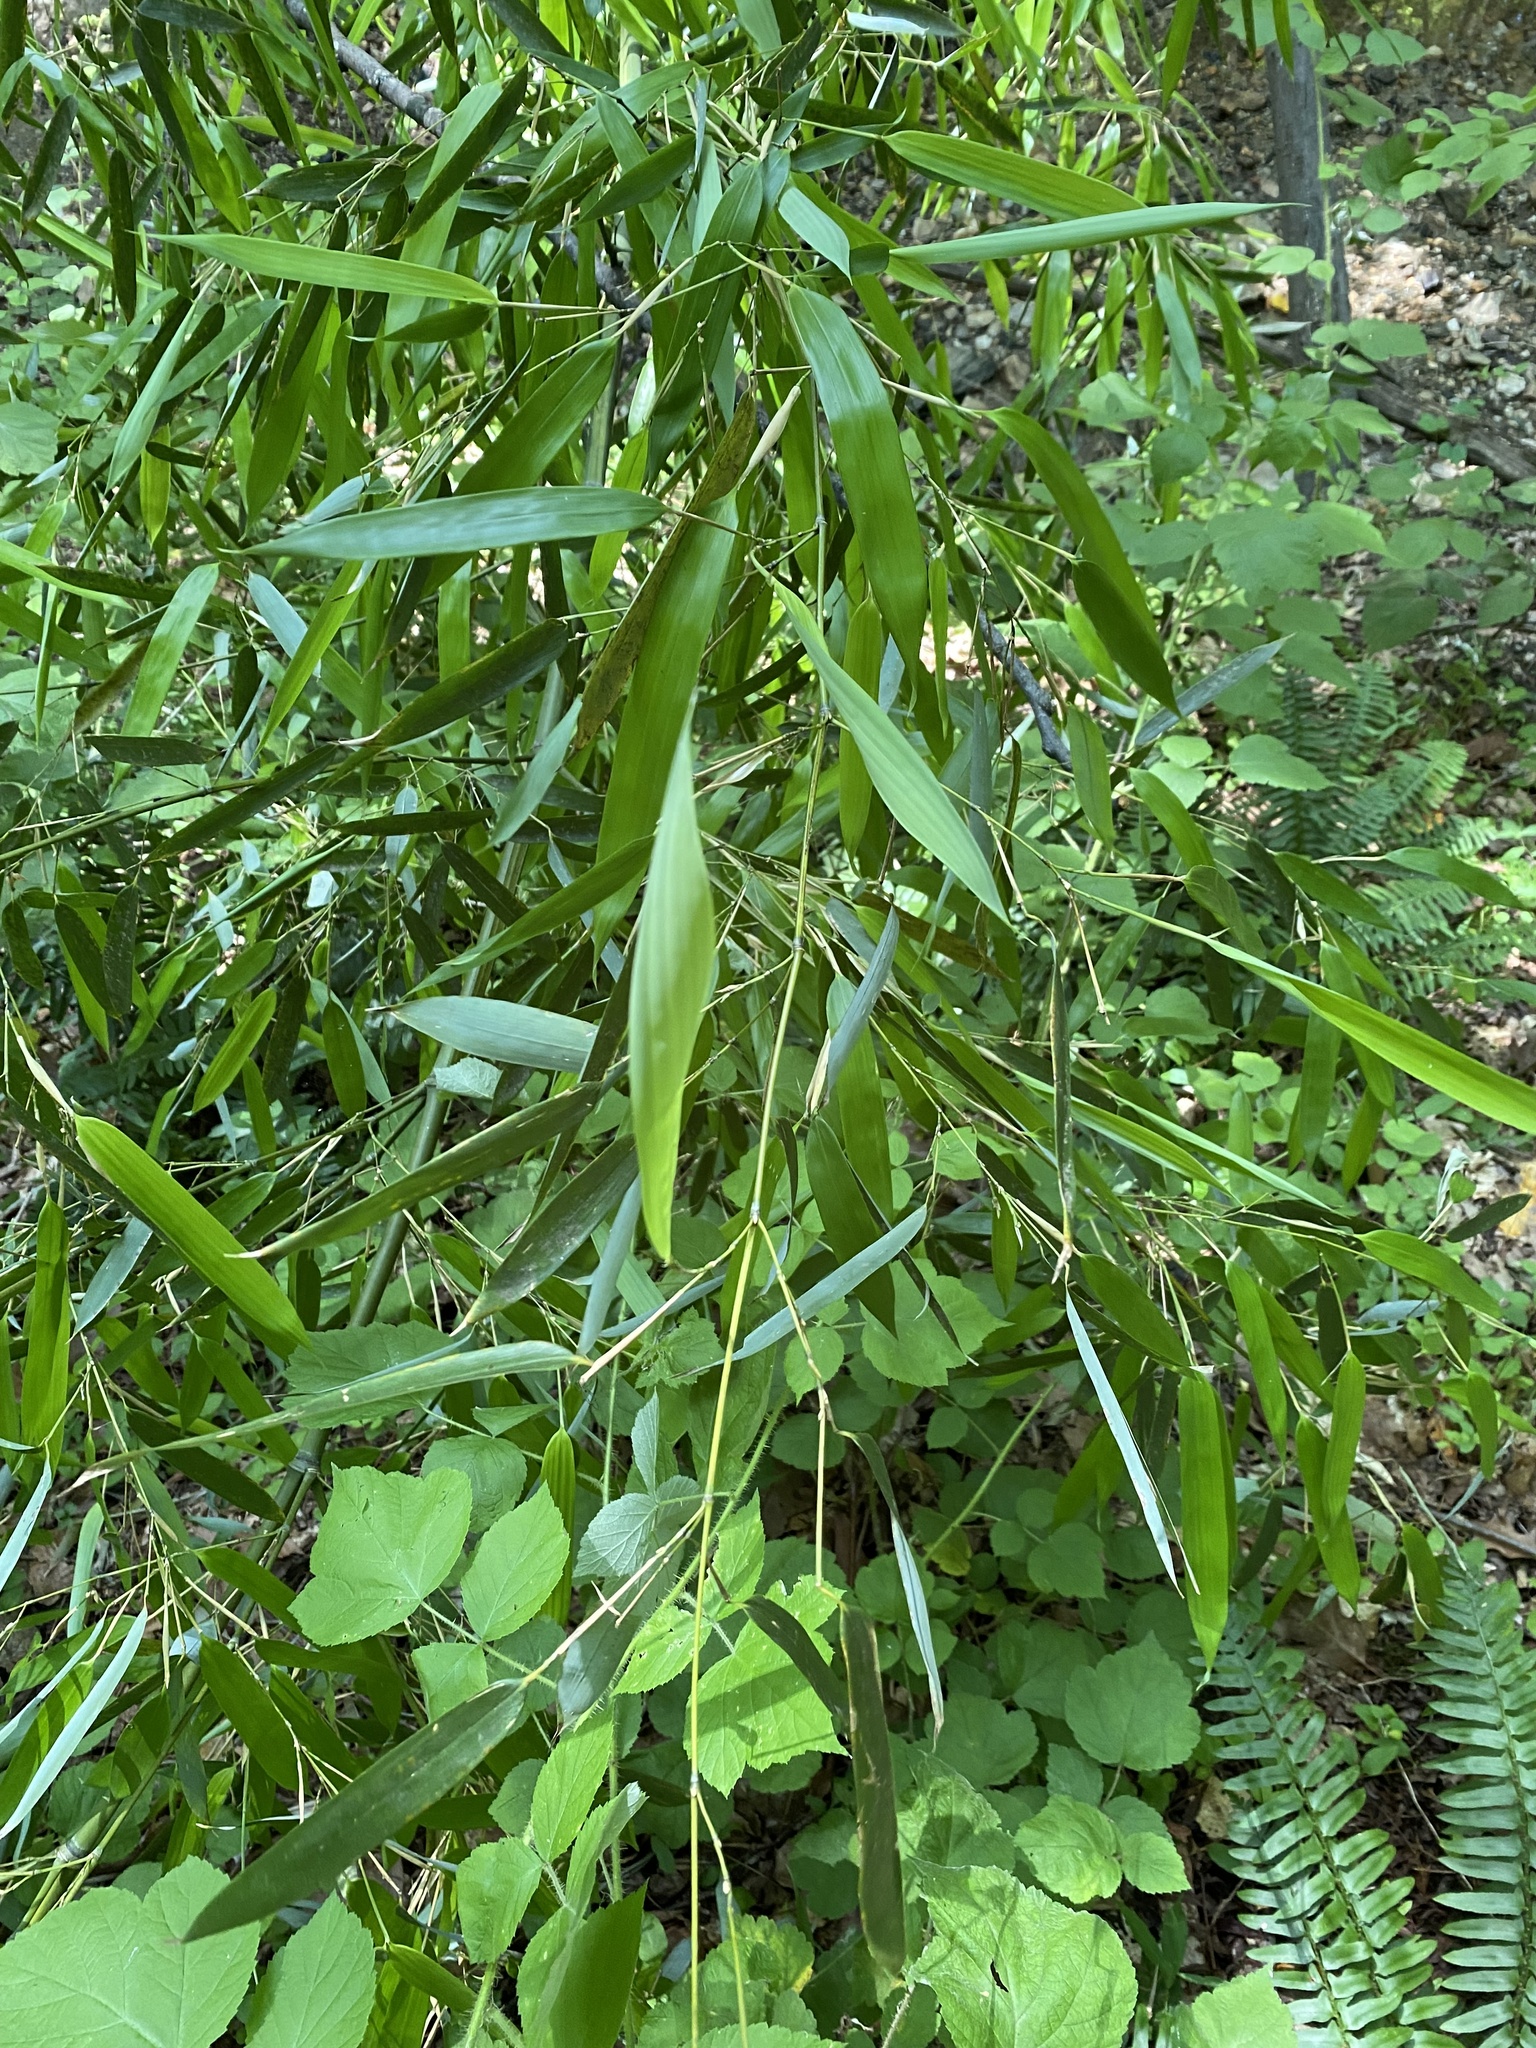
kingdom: Plantae
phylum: Tracheophyta
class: Liliopsida
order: Poales
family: Poaceae
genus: Phyllostachys
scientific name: Phyllostachys aureosulcata
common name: Yellow groove bamboo
